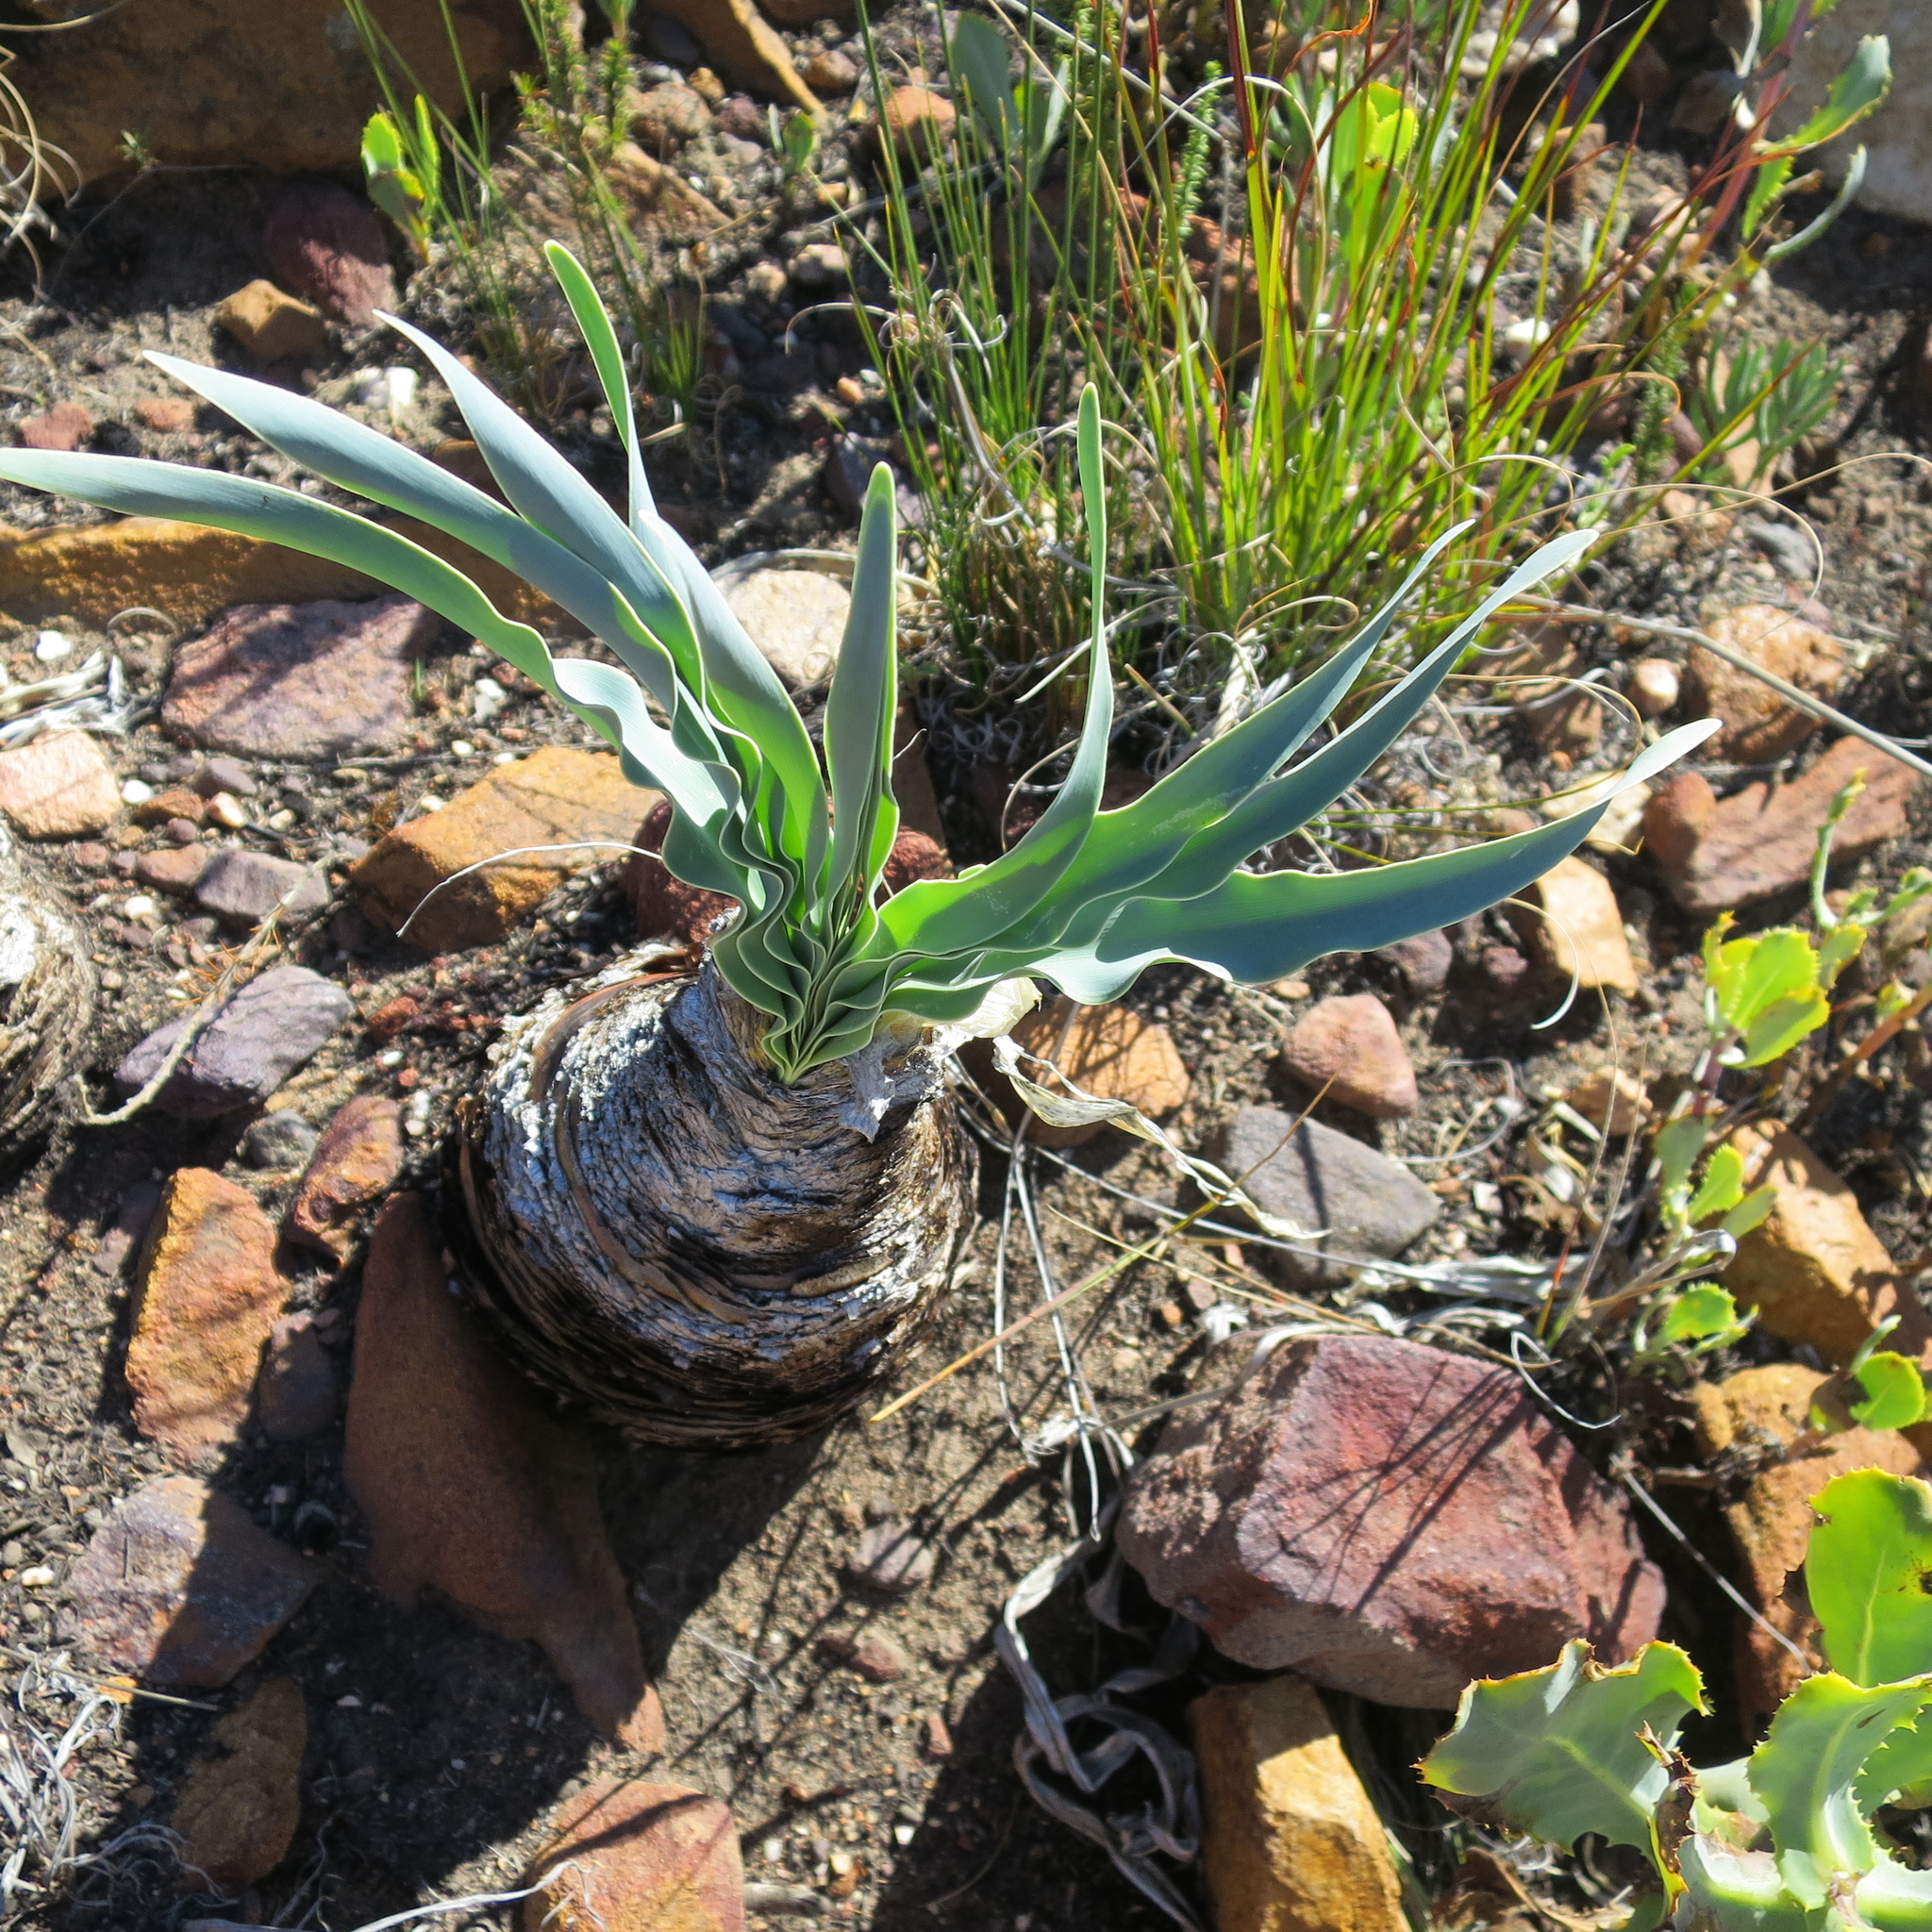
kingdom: Plantae
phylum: Tracheophyta
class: Liliopsida
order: Asparagales
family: Amaryllidaceae
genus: Boophone
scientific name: Boophone disticha
